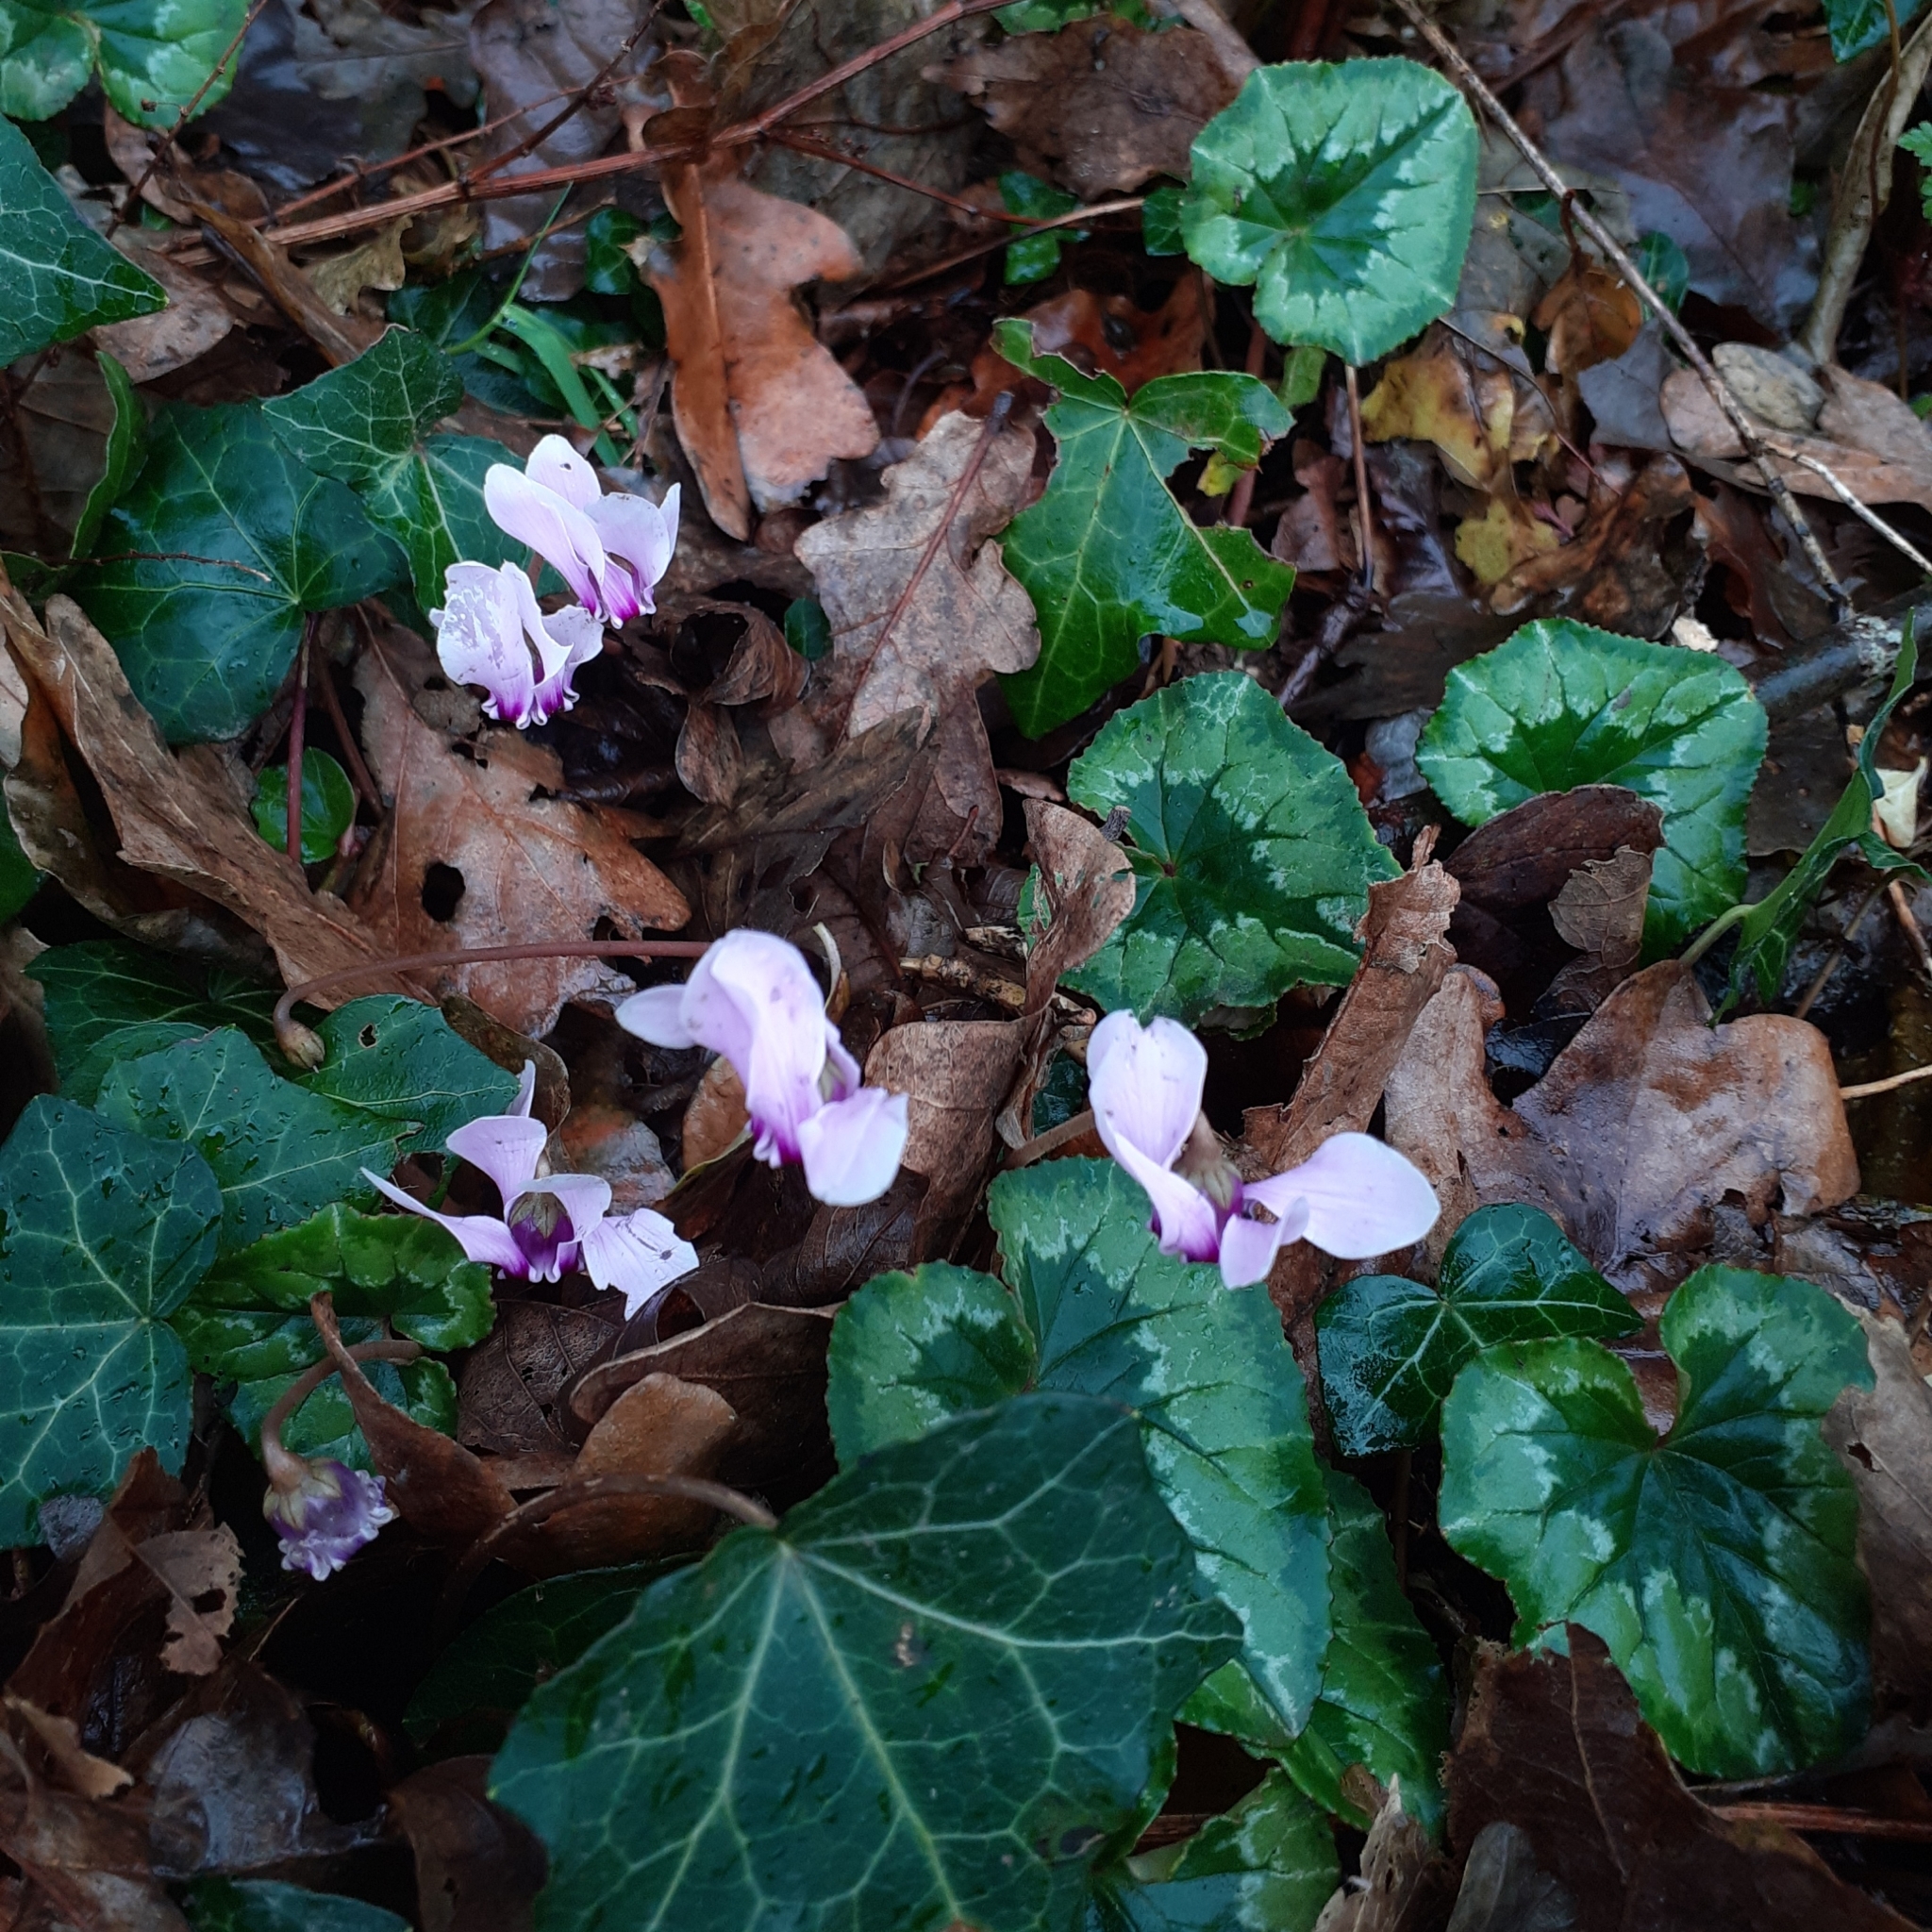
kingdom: Plantae
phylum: Tracheophyta
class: Magnoliopsida
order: Ericales
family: Primulaceae
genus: Cyclamen
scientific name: Cyclamen hederifolium
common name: Sowbread
